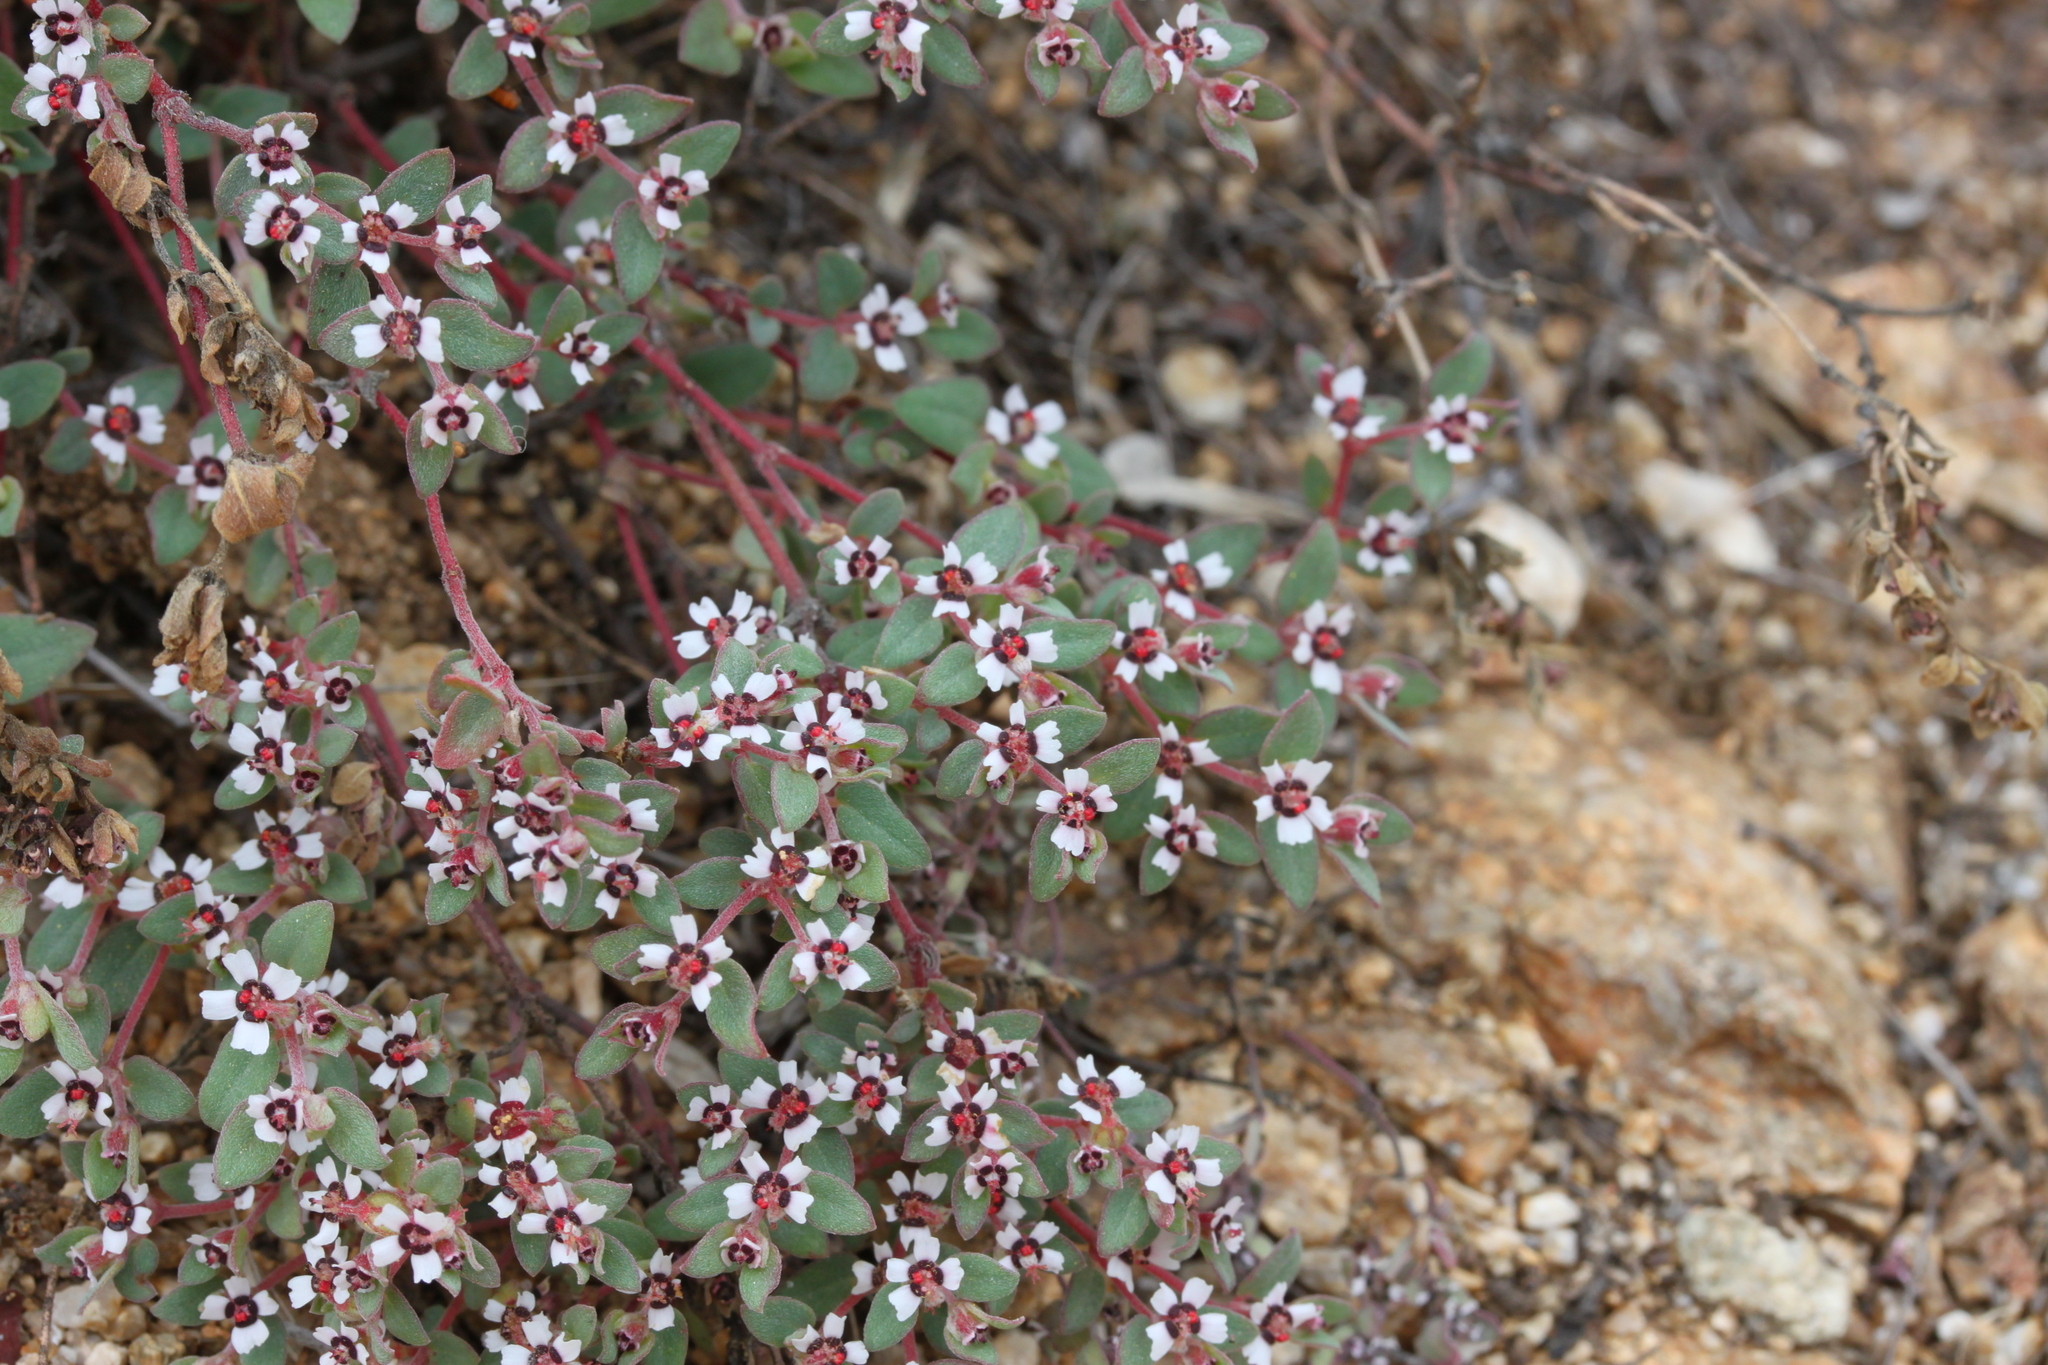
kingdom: Plantae
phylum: Tracheophyta
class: Magnoliopsida
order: Malpighiales
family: Euphorbiaceae
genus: Euphorbia
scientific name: Euphorbia pediculifera
